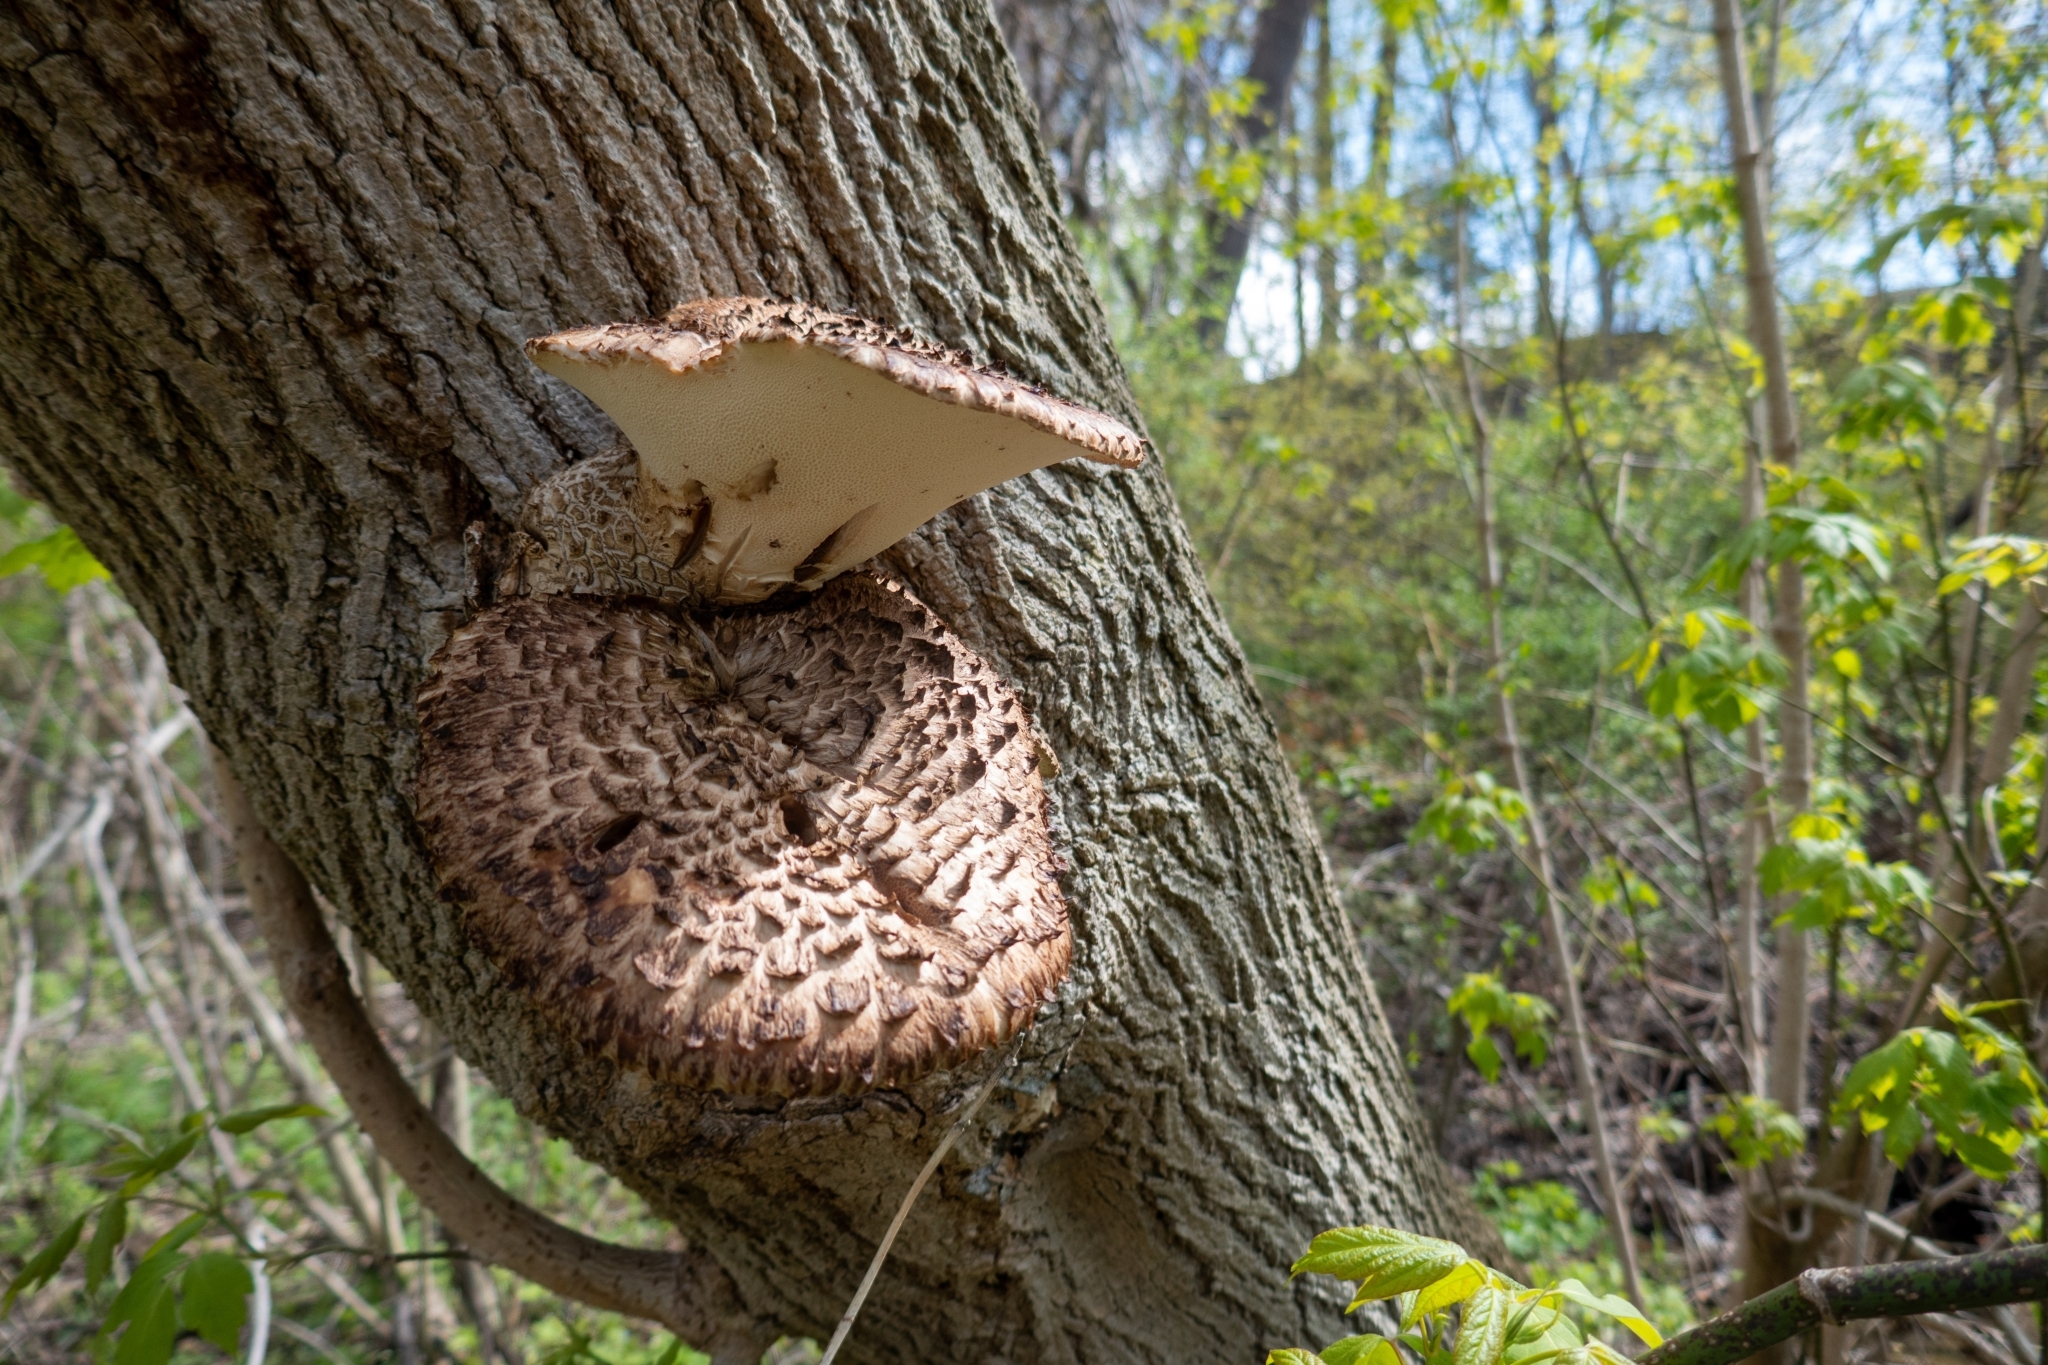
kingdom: Fungi
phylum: Basidiomycota
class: Agaricomycetes
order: Polyporales
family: Polyporaceae
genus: Cerioporus
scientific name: Cerioporus squamosus
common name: Dryad's saddle
